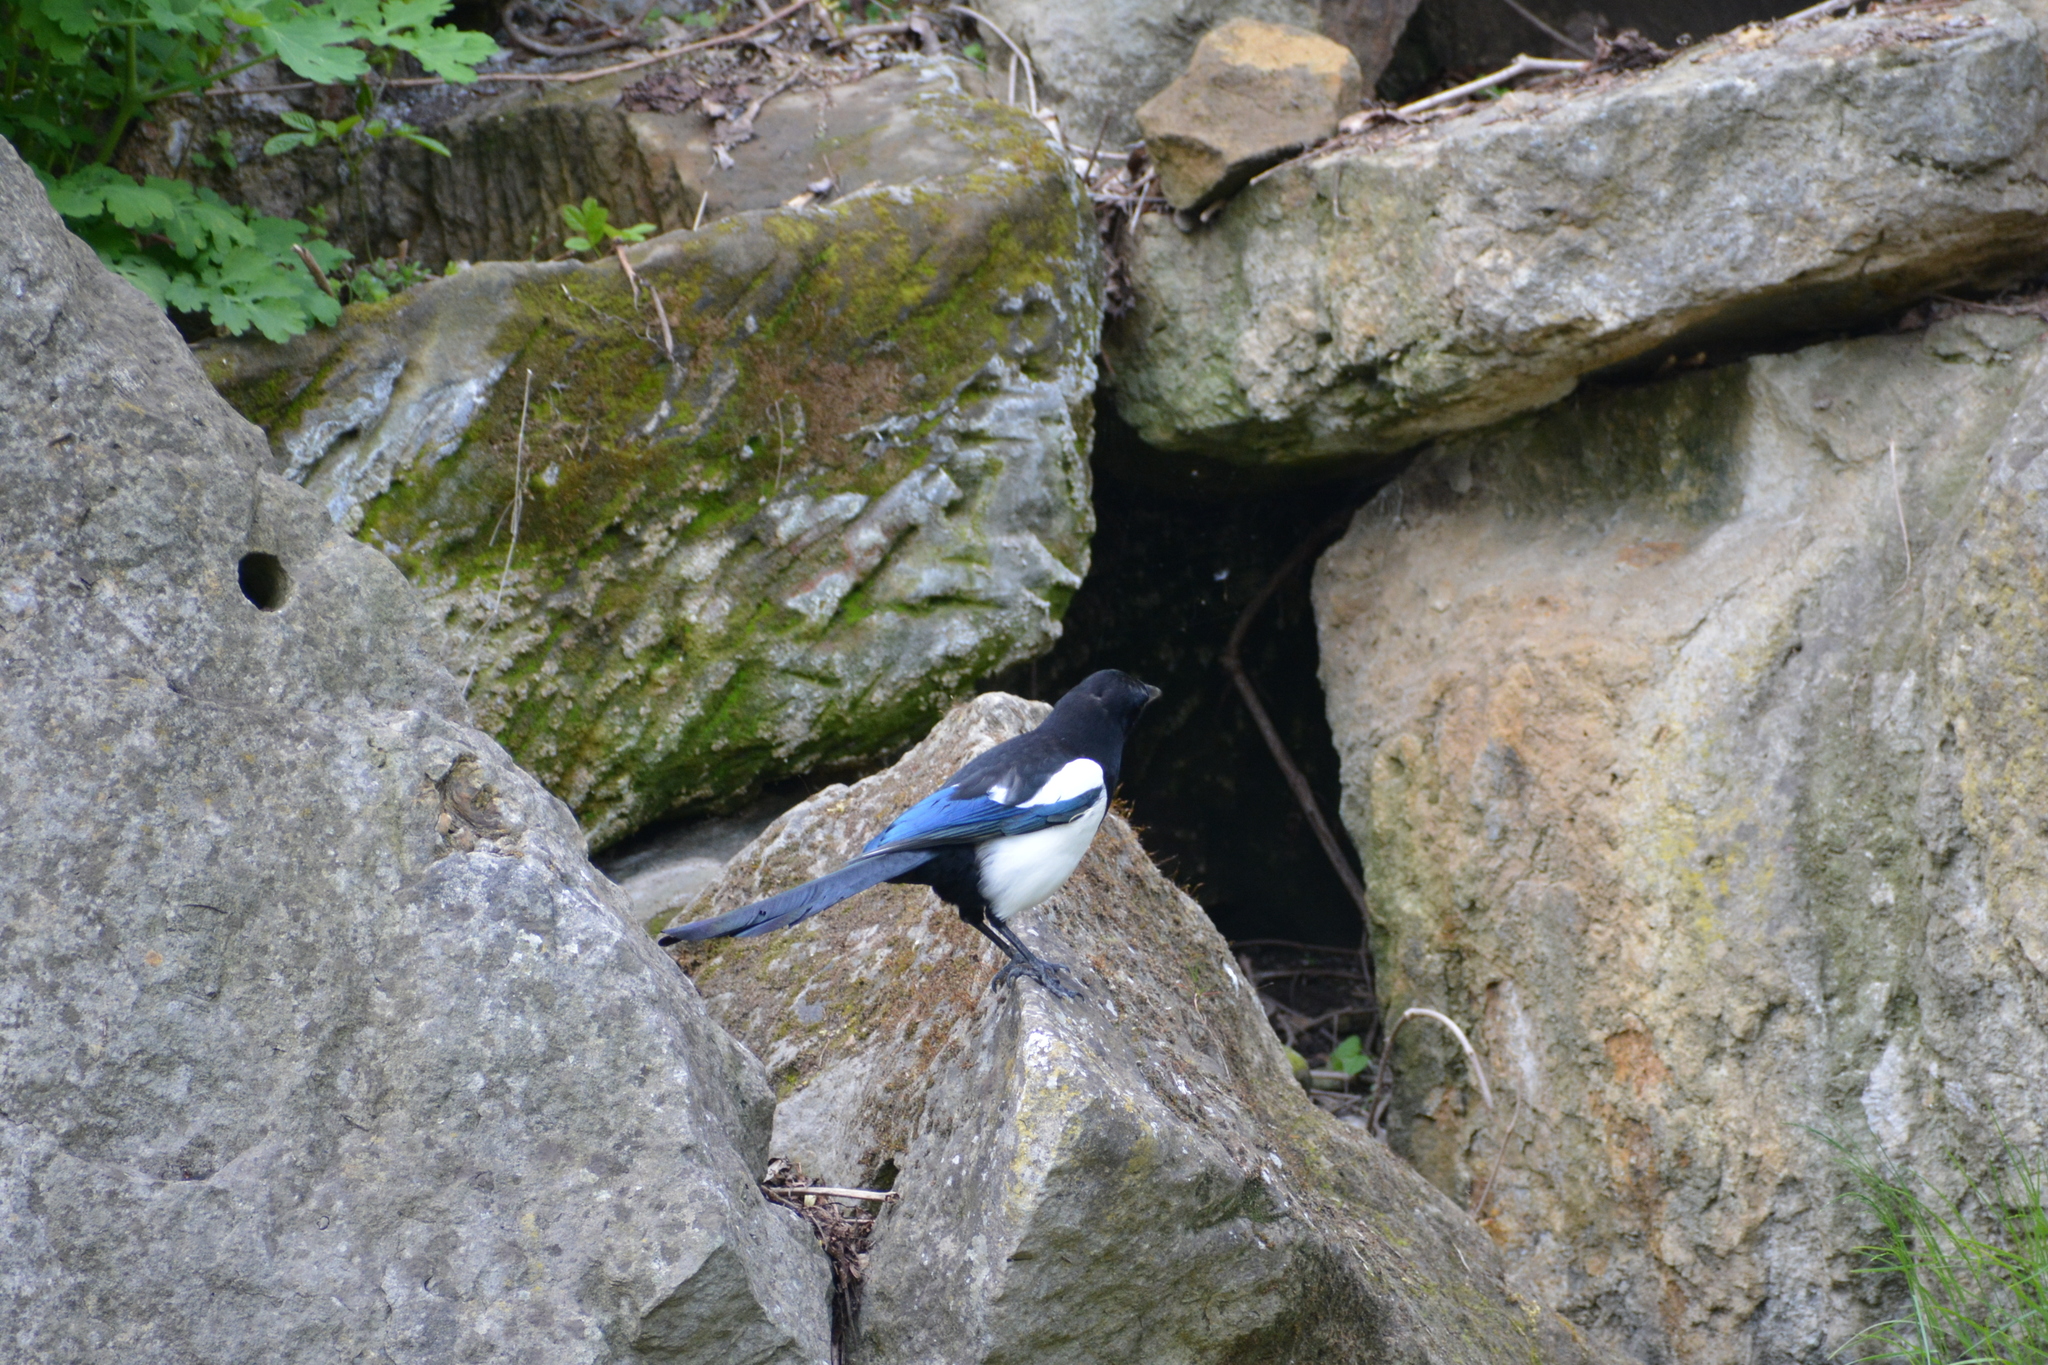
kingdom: Animalia
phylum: Chordata
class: Aves
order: Passeriformes
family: Corvidae
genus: Pica
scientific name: Pica pica
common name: Eurasian magpie
